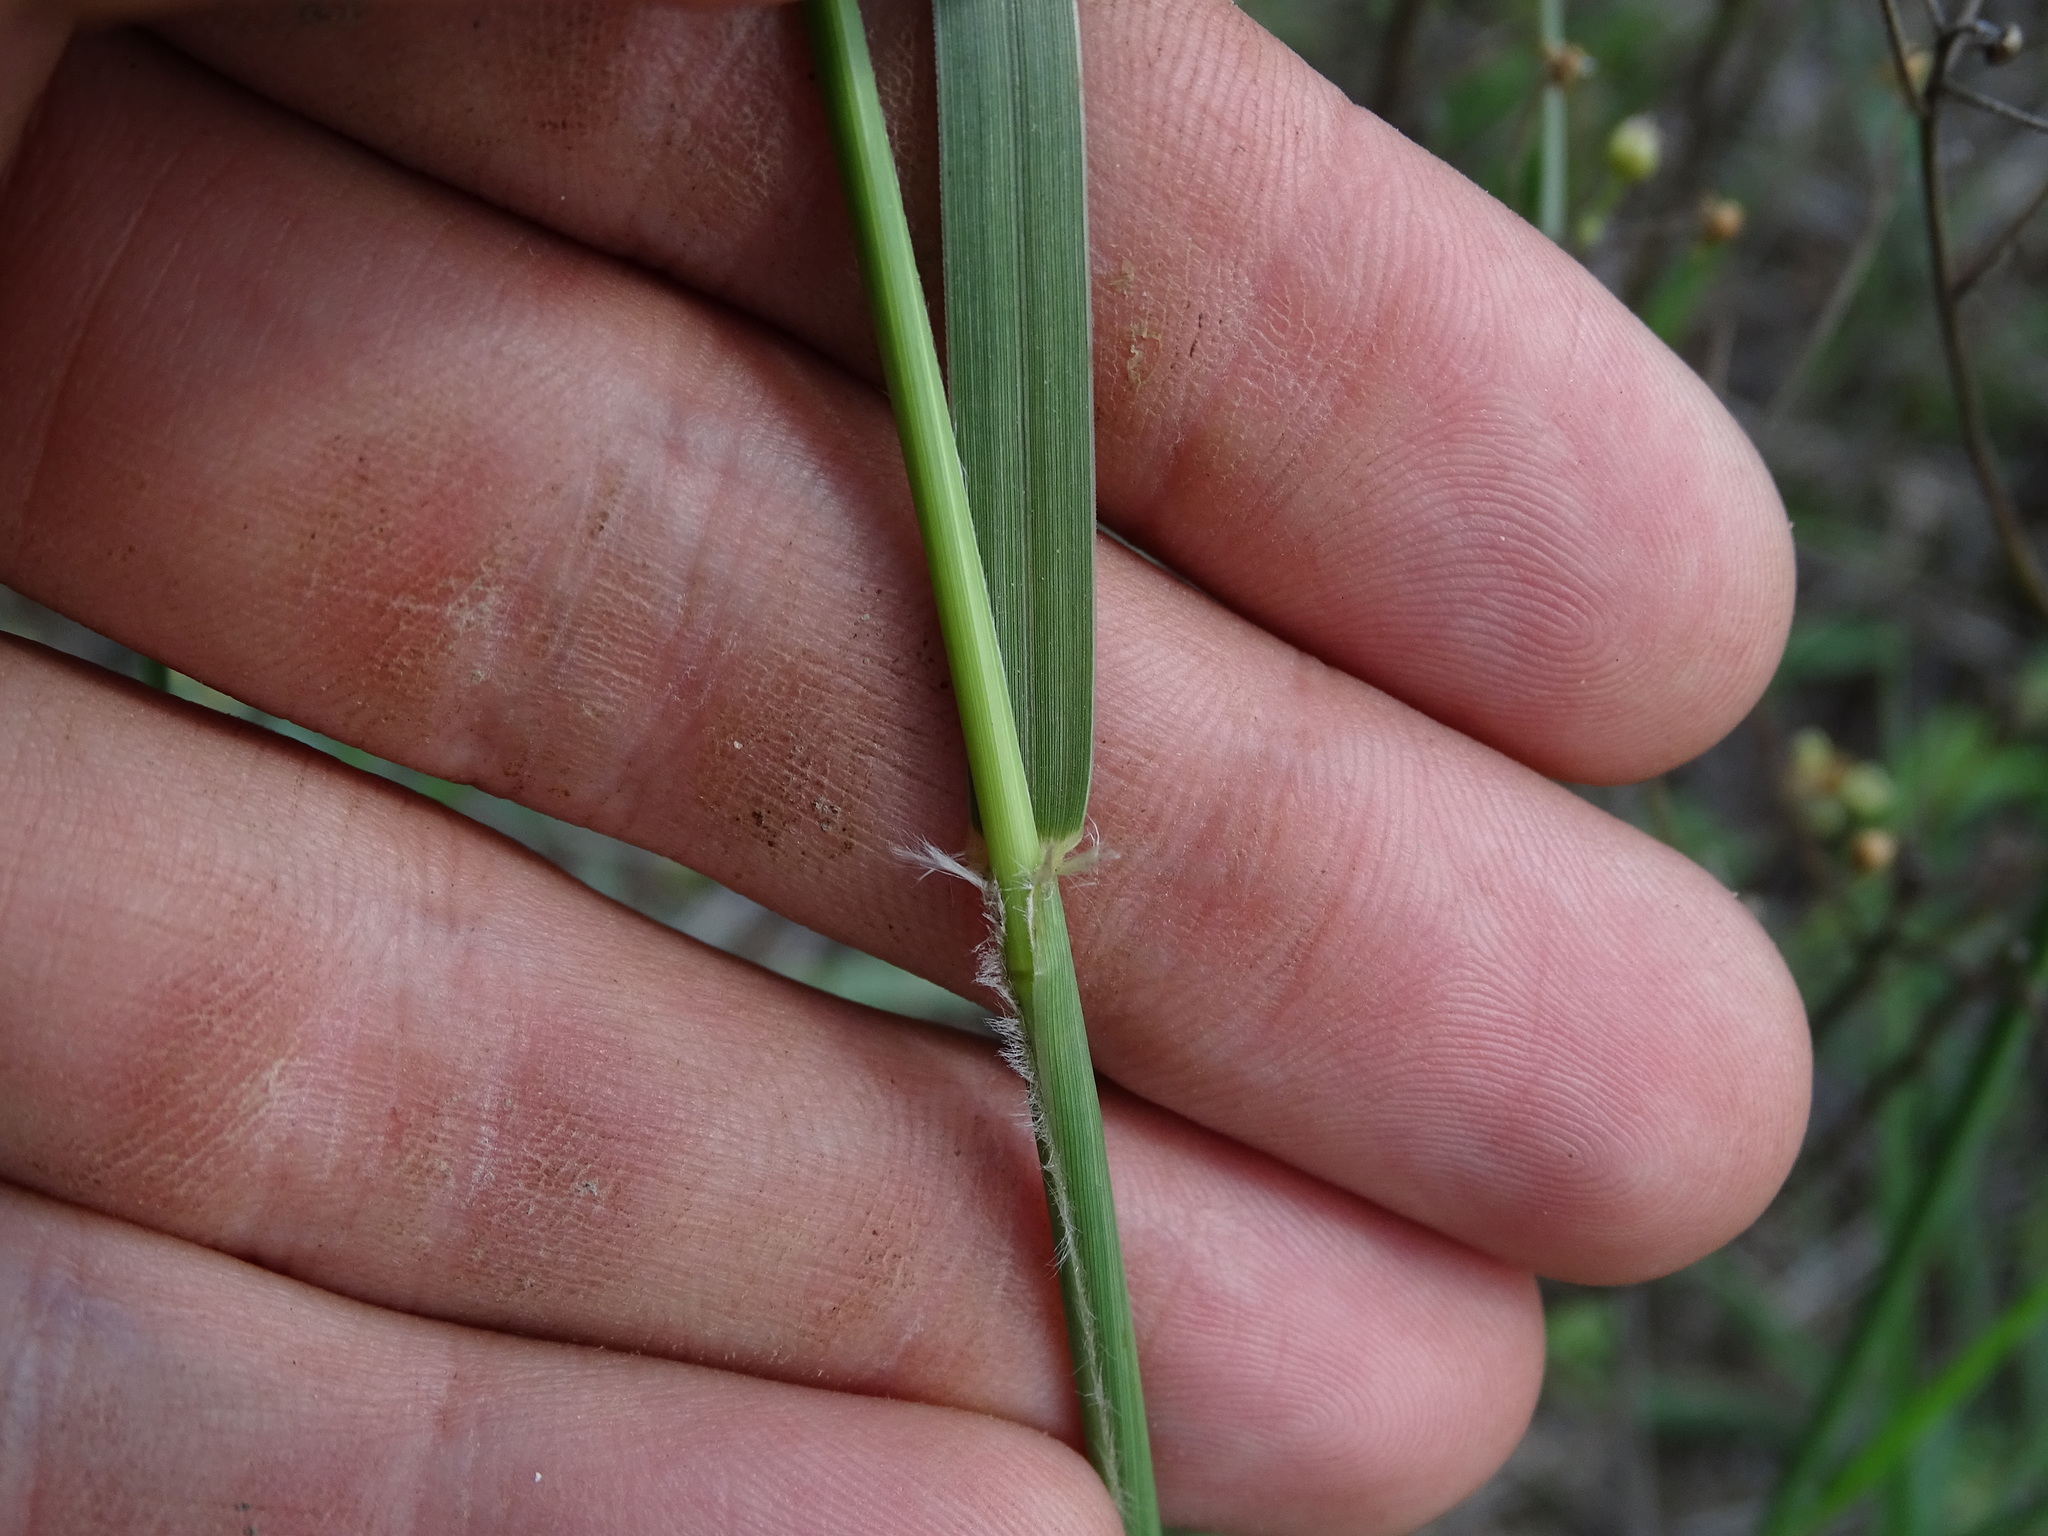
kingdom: Plantae
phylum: Tracheophyta
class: Liliopsida
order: Poales
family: Poaceae
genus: Sporobolus
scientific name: Sporobolus cryptandrus
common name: Sand dropseed
